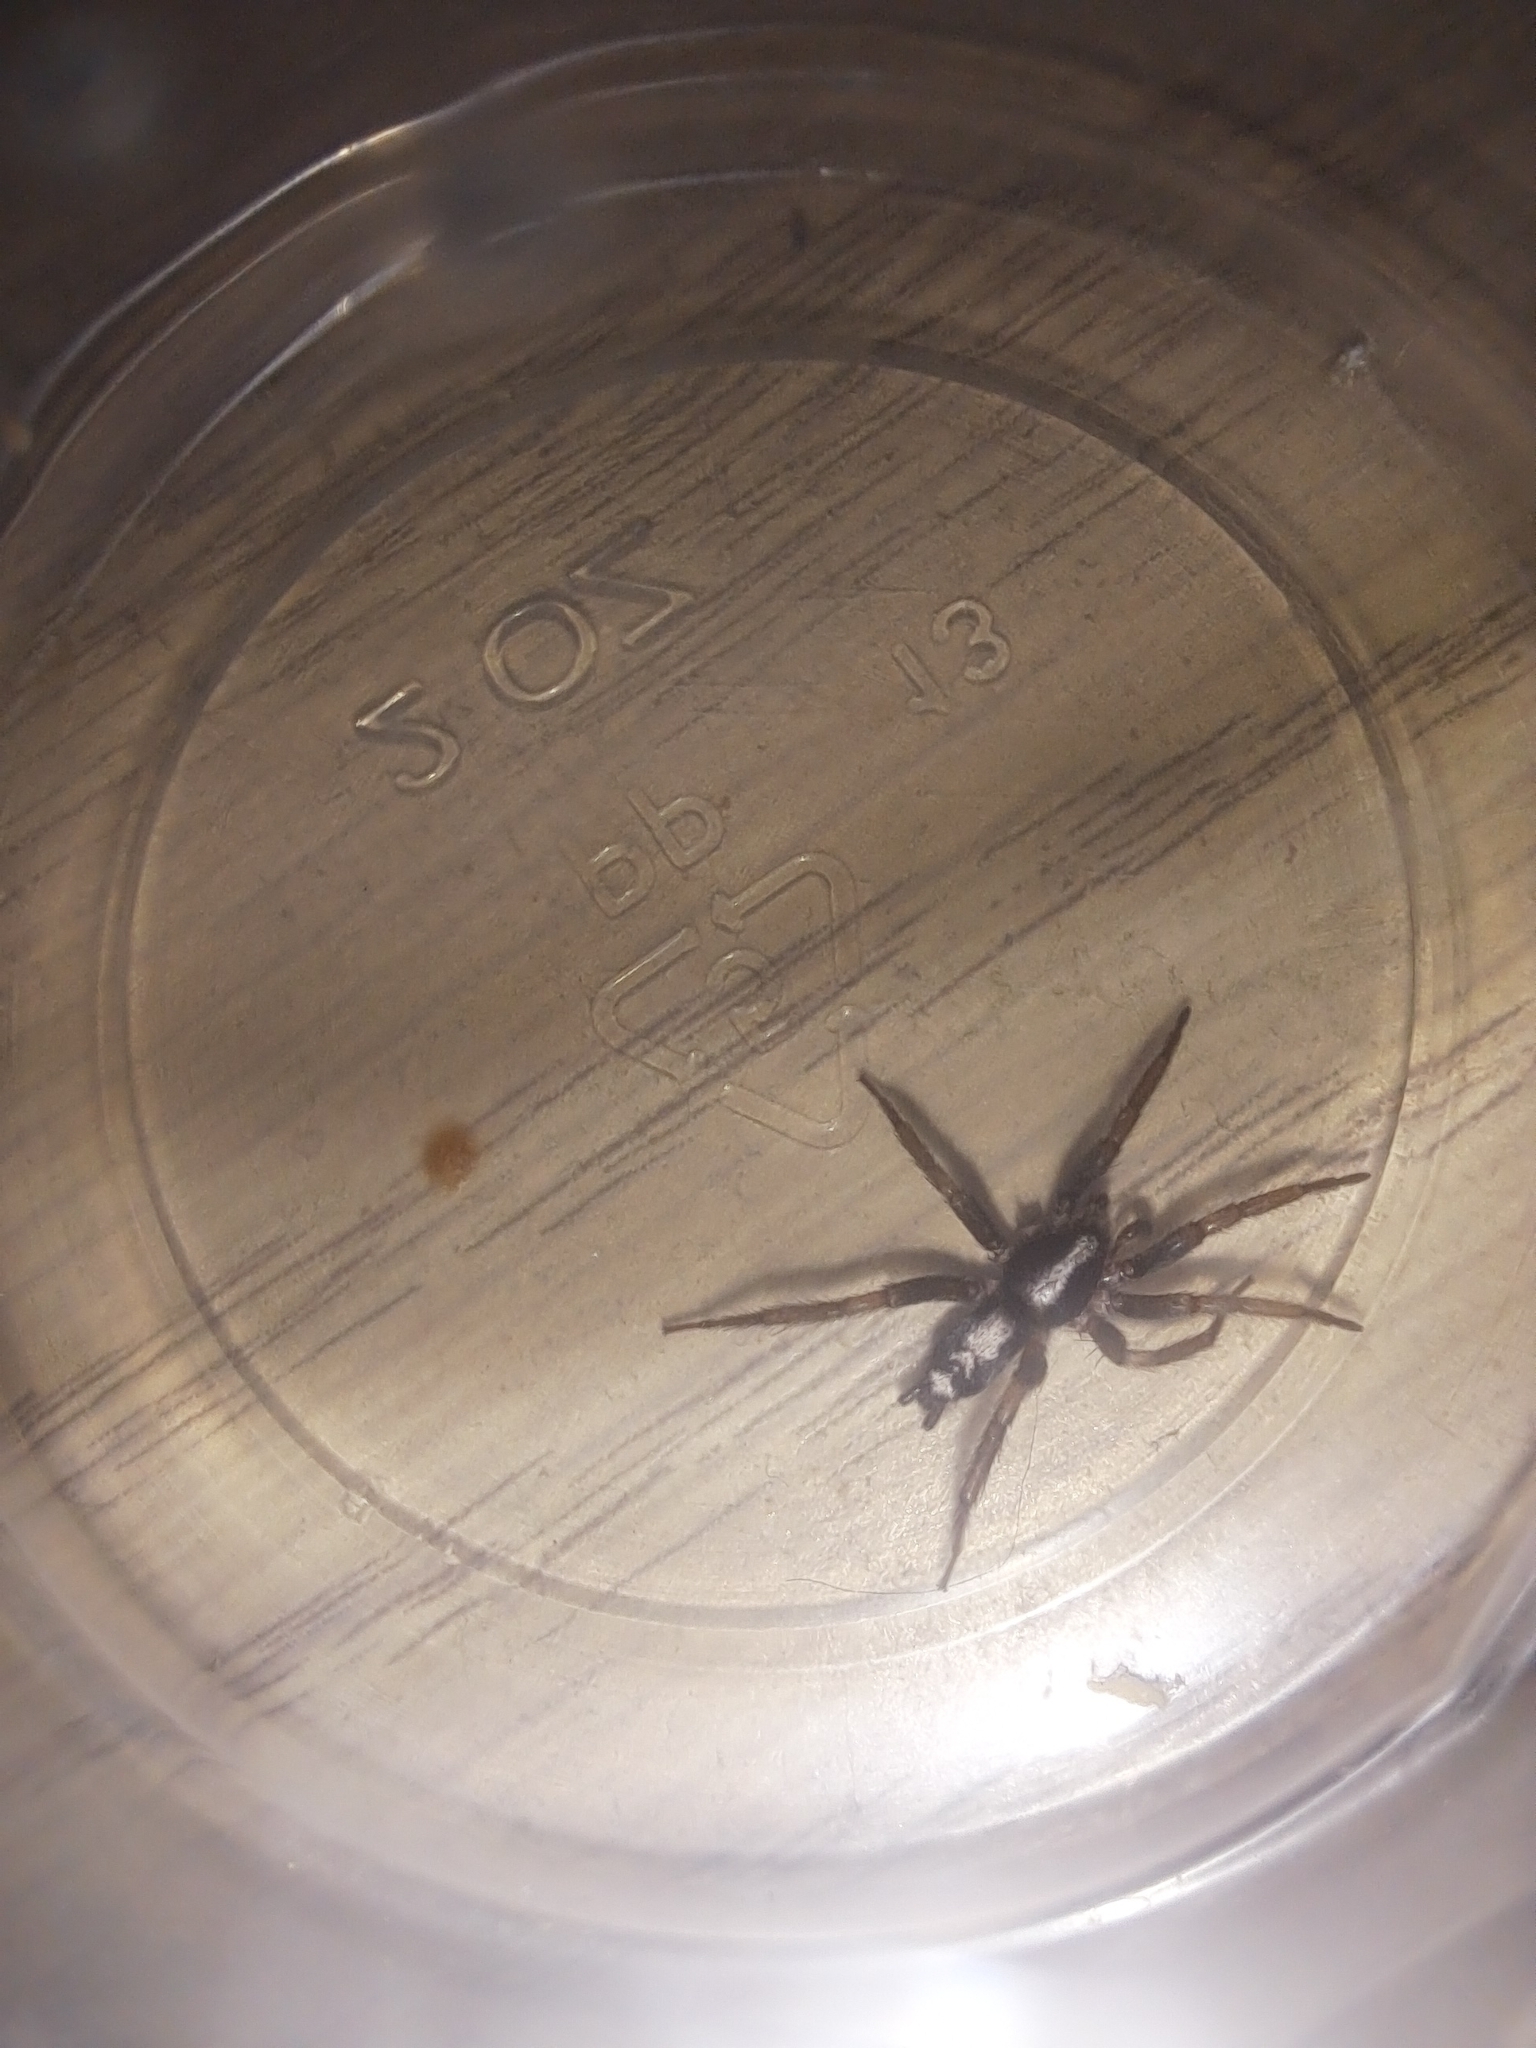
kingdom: Animalia
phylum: Arthropoda
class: Arachnida
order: Araneae
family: Gnaphosidae
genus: Herpyllus
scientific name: Herpyllus ecclesiasticus
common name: Eastern parson spider
